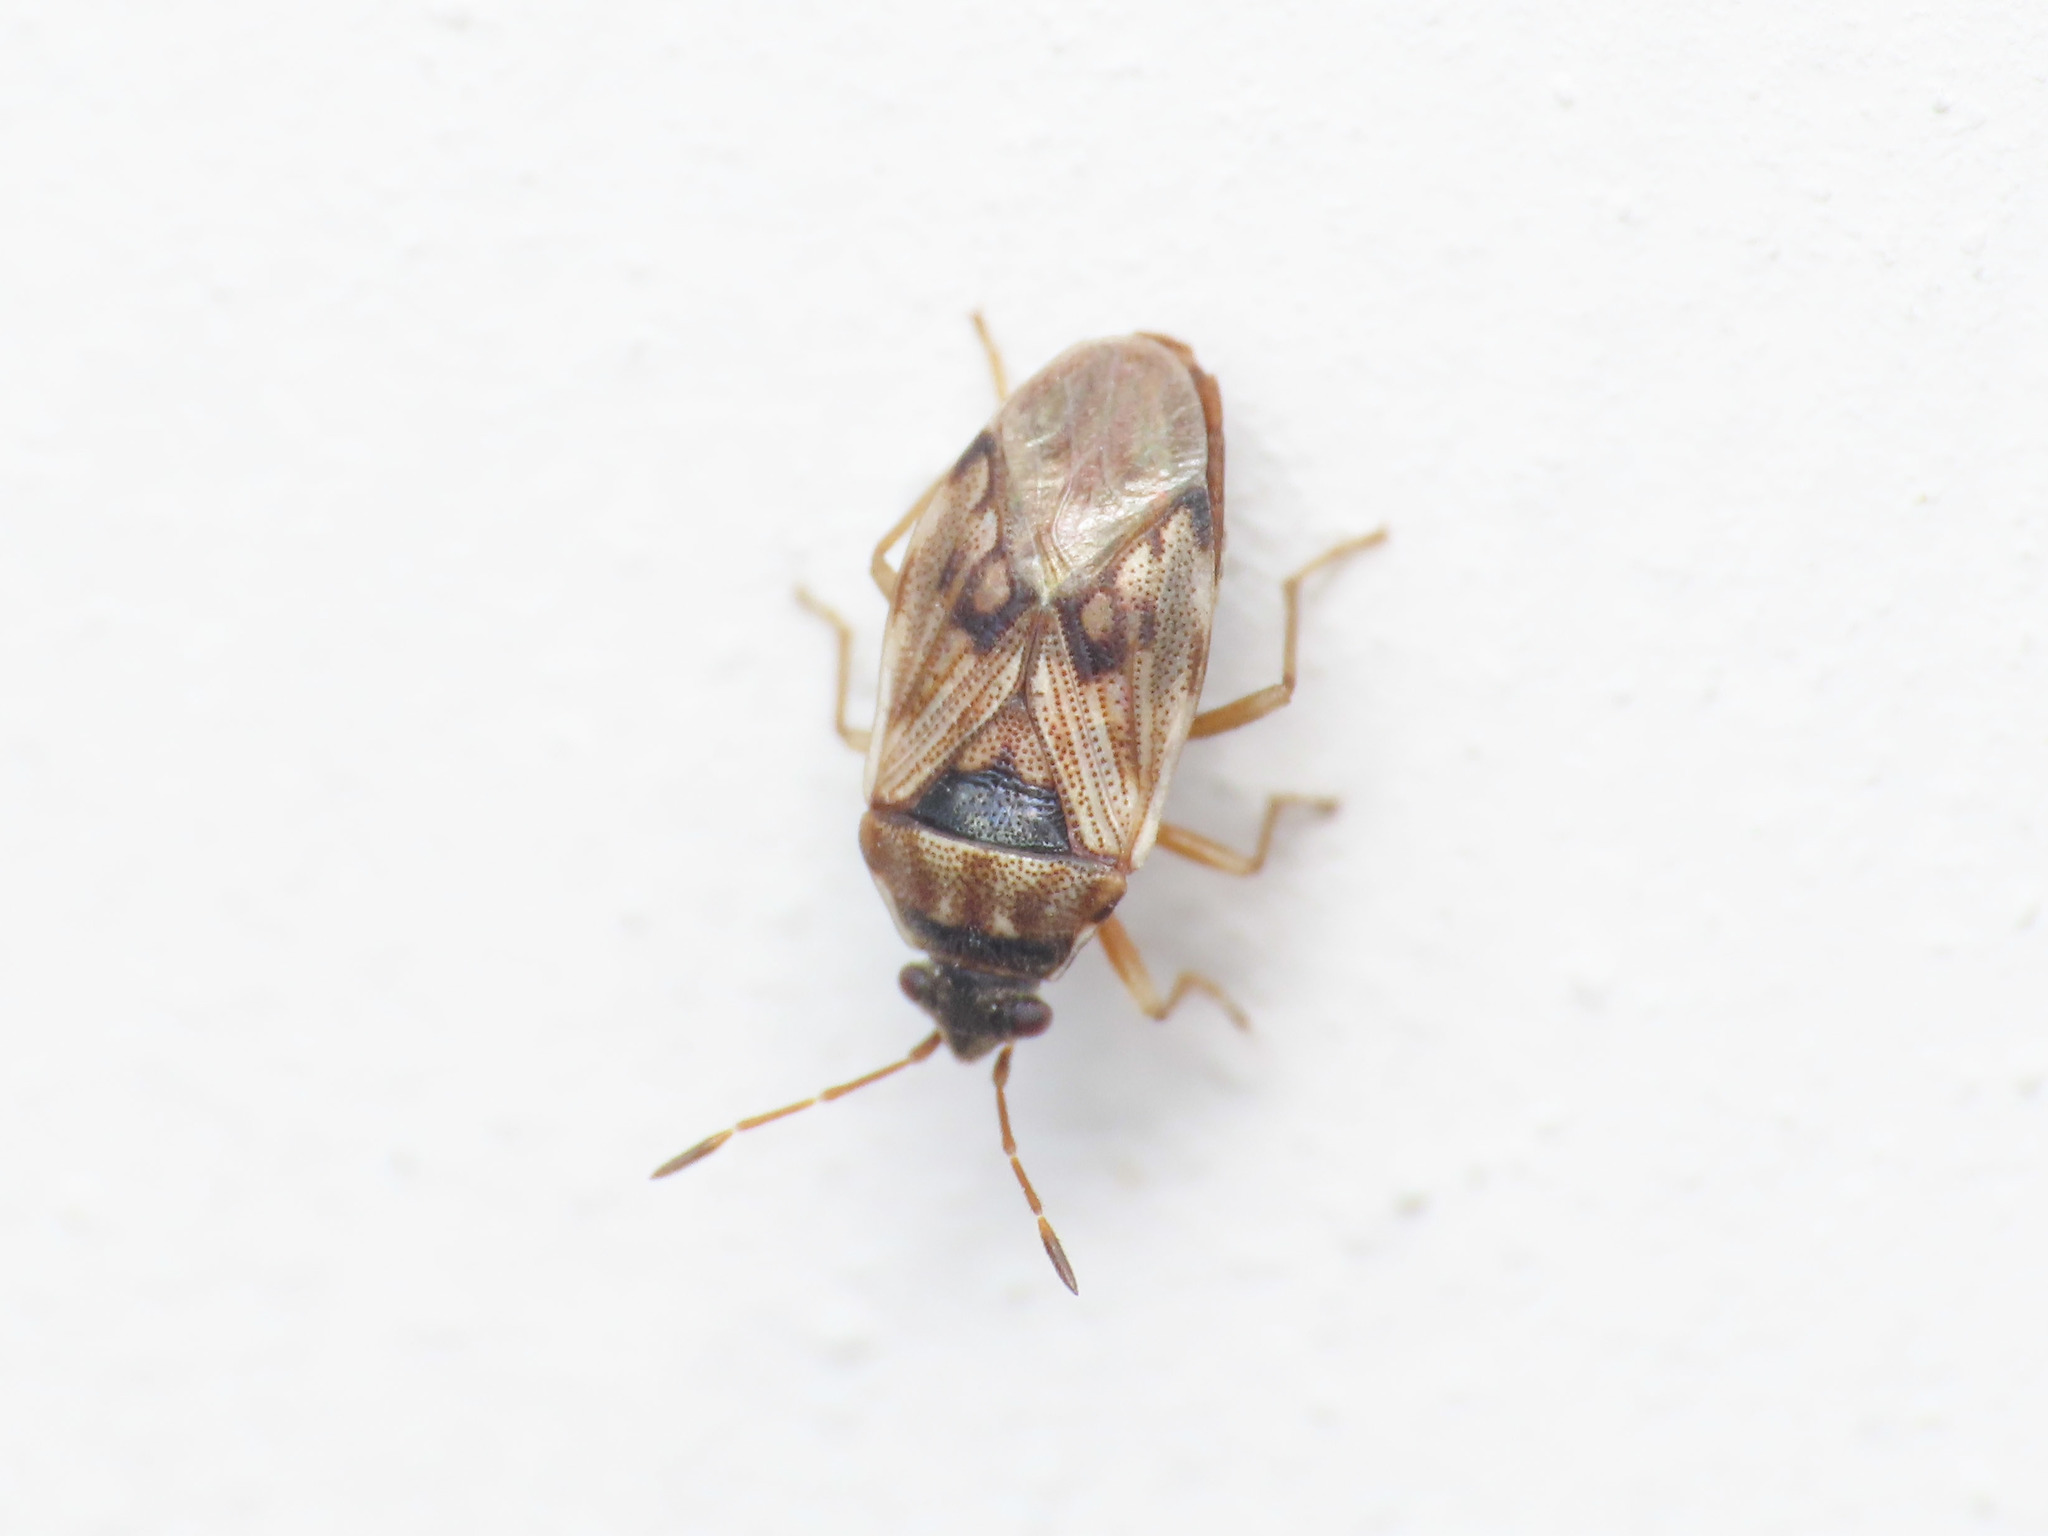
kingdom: Animalia
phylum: Arthropoda
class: Insecta
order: Hemiptera
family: Rhyparochromidae
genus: Hyalochilus
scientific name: Hyalochilus ovatulus
